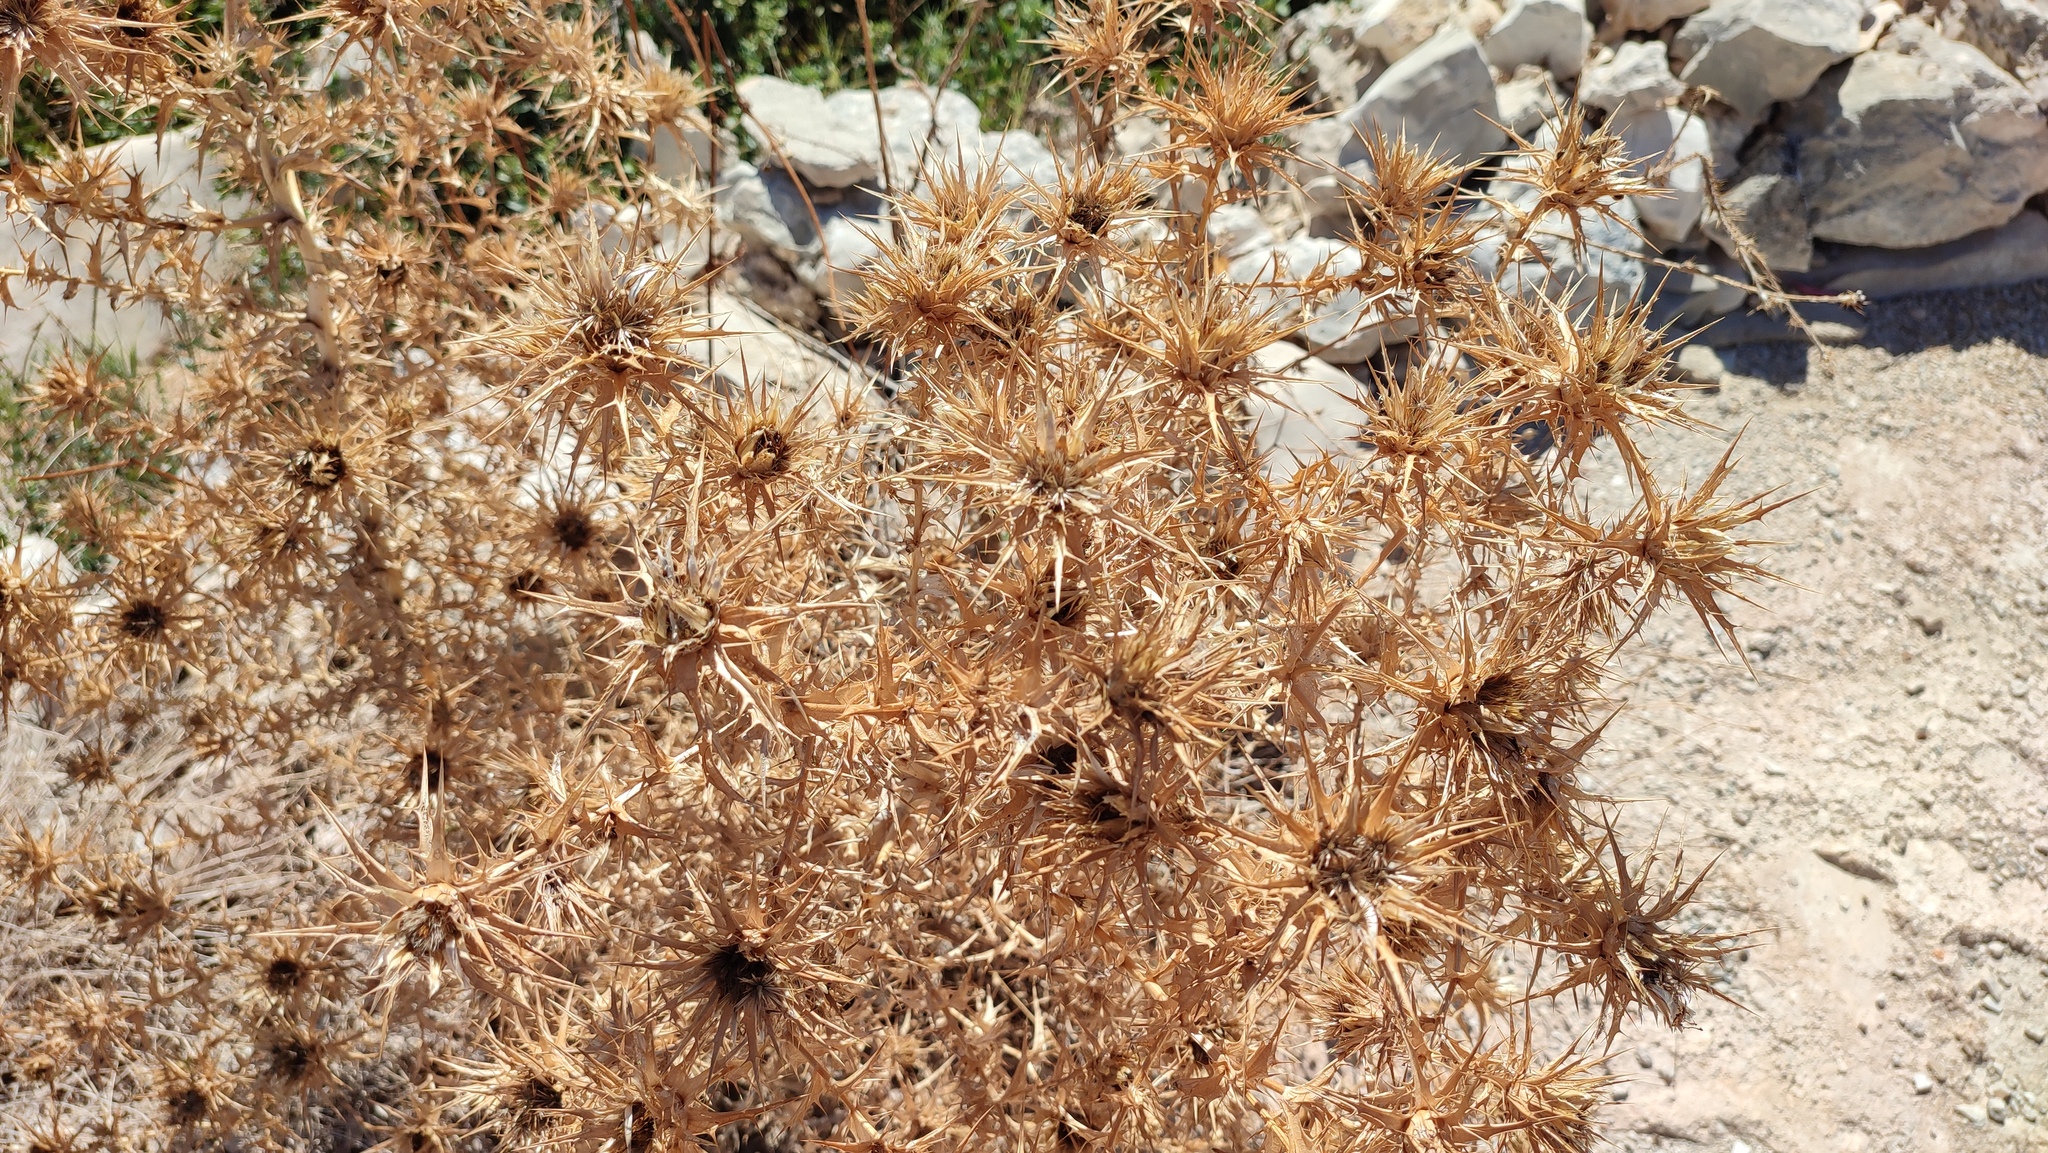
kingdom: Plantae
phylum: Tracheophyta
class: Magnoliopsida
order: Asterales
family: Asteraceae
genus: Carlina
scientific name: Carlina corymbosa
